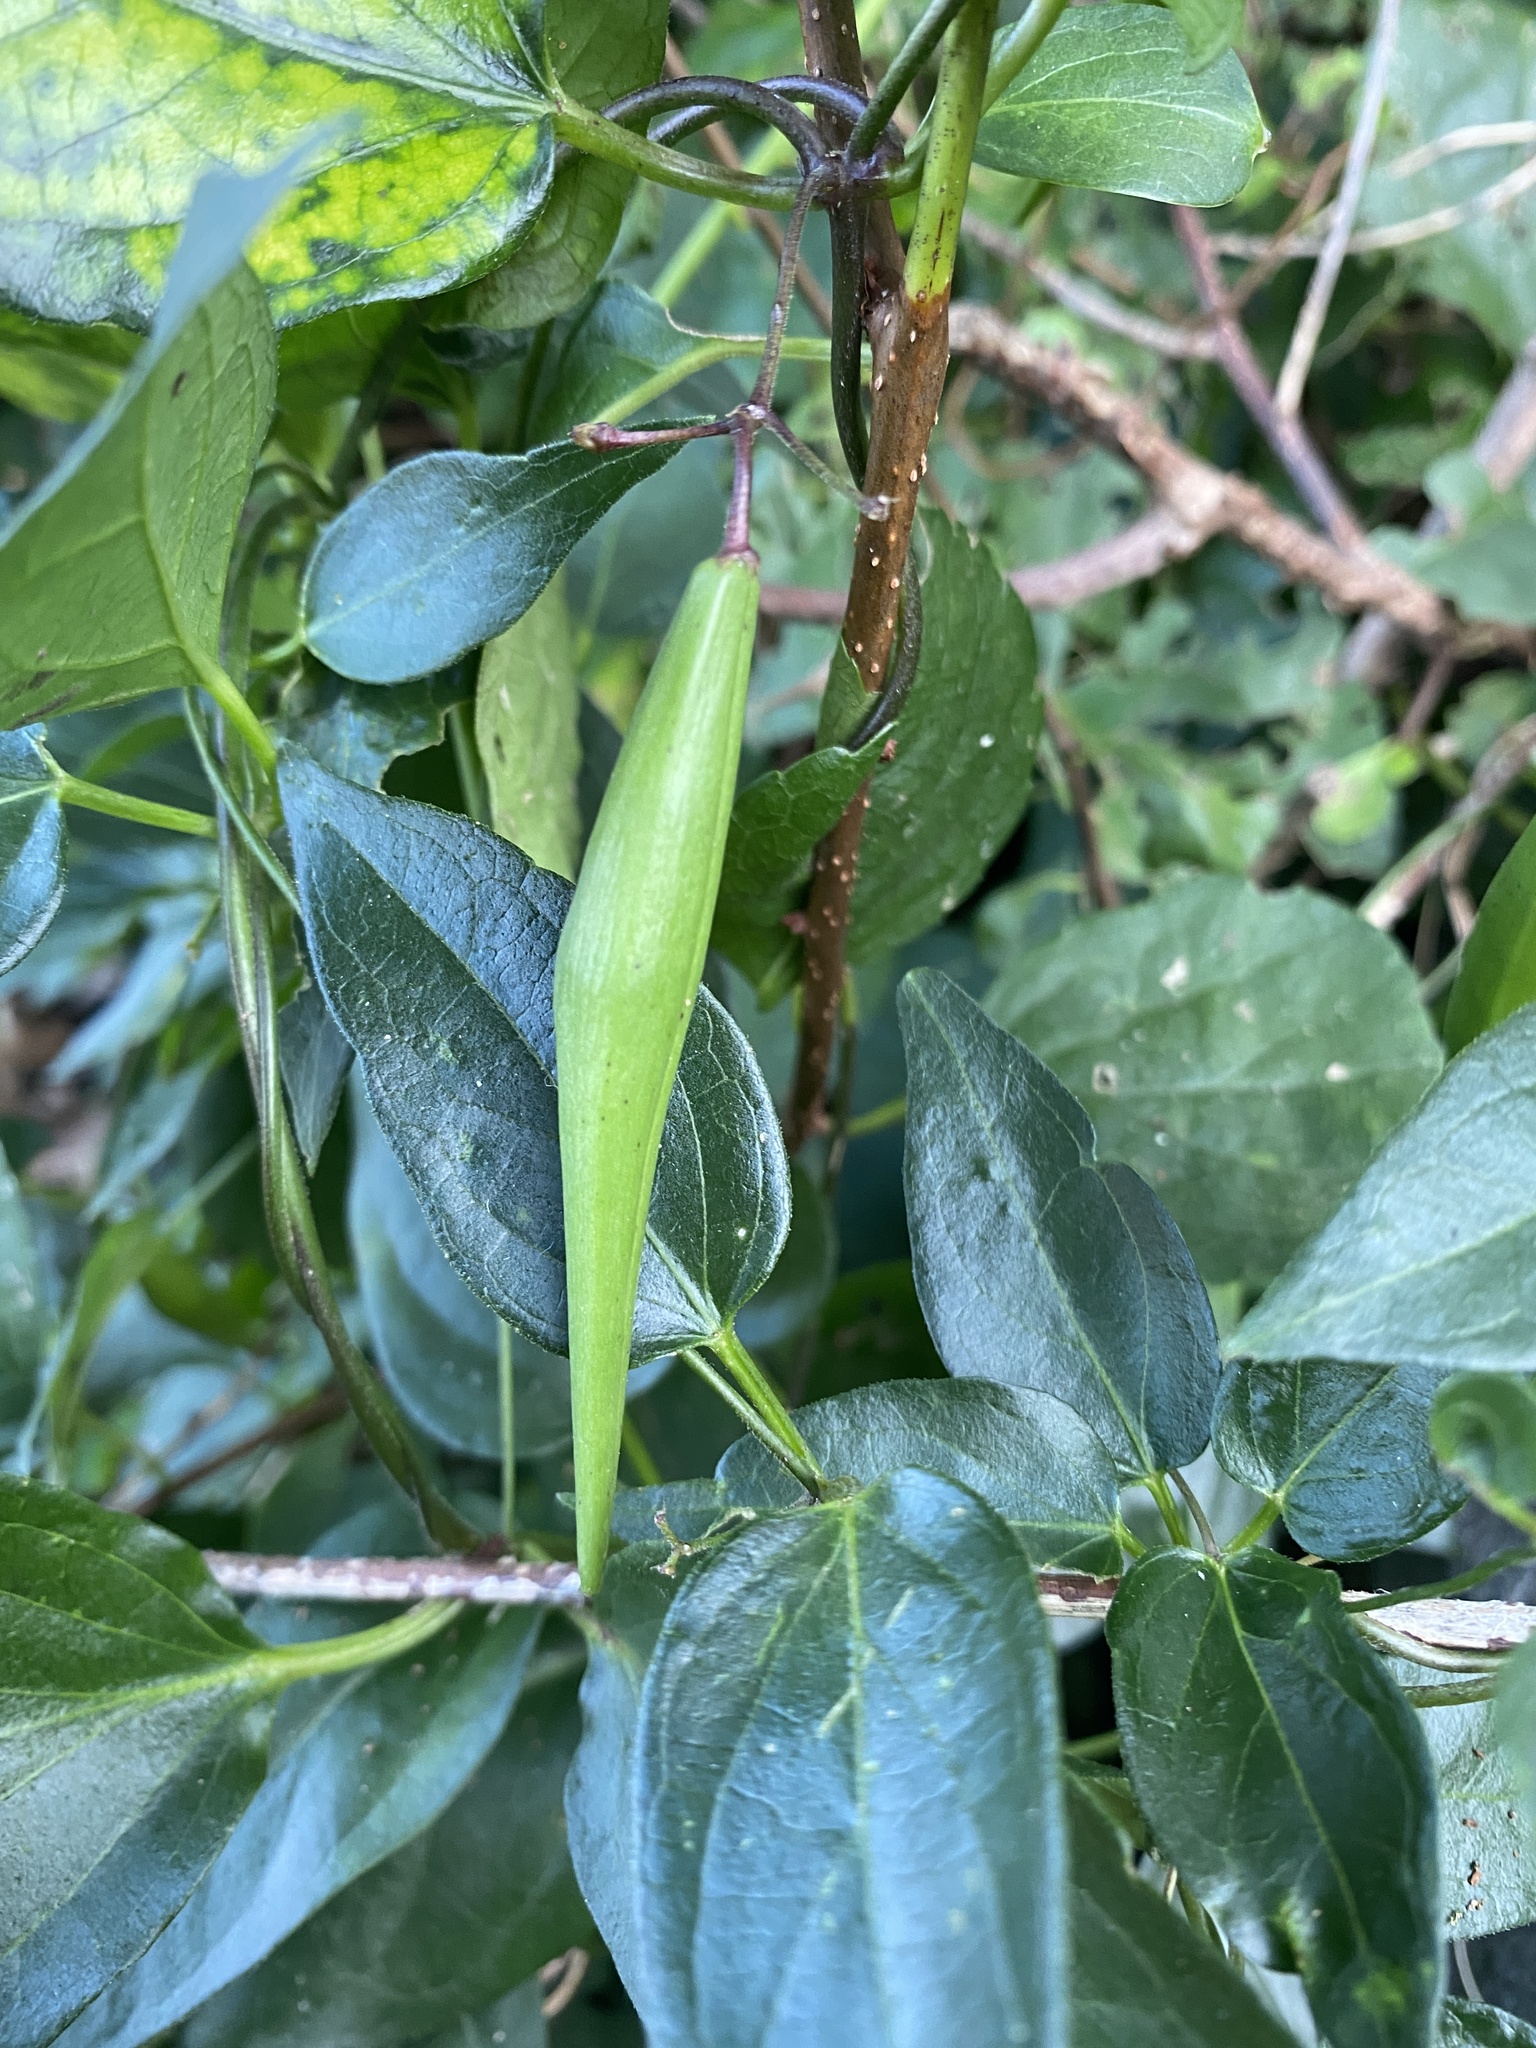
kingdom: Plantae
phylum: Tracheophyta
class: Magnoliopsida
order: Gentianales
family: Apocynaceae
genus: Vincetoxicum
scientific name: Vincetoxicum nigrum
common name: Black swallow-wort
